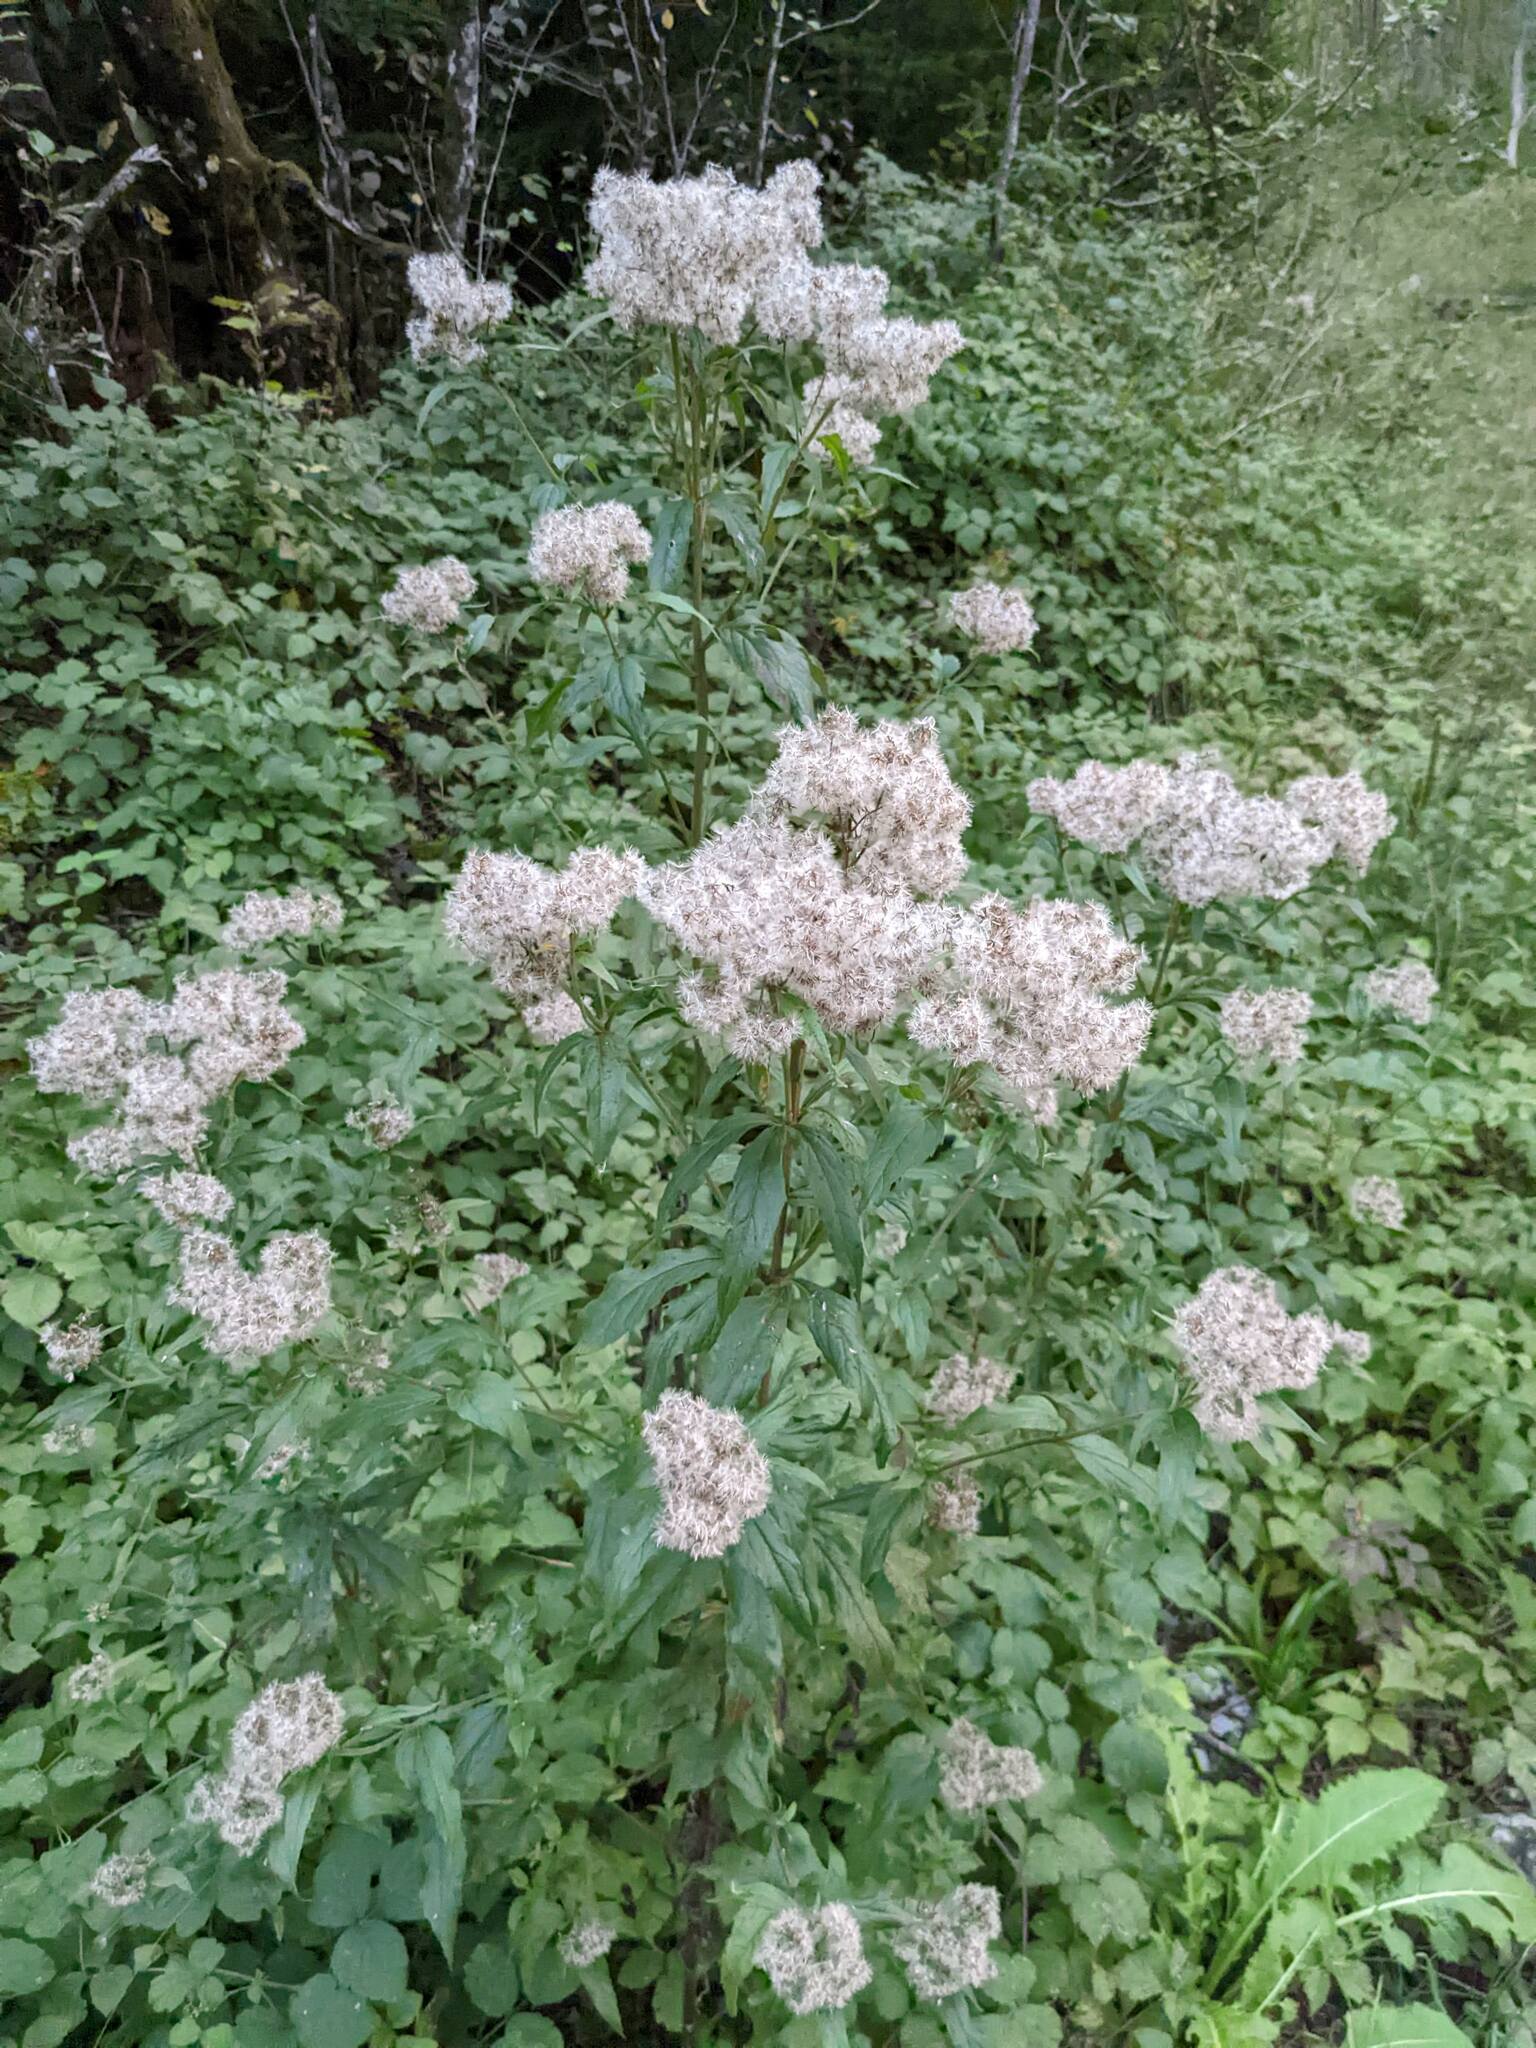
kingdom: Plantae
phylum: Tracheophyta
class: Magnoliopsida
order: Asterales
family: Asteraceae
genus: Eupatorium
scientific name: Eupatorium cannabinum
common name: Hemp-agrimony
